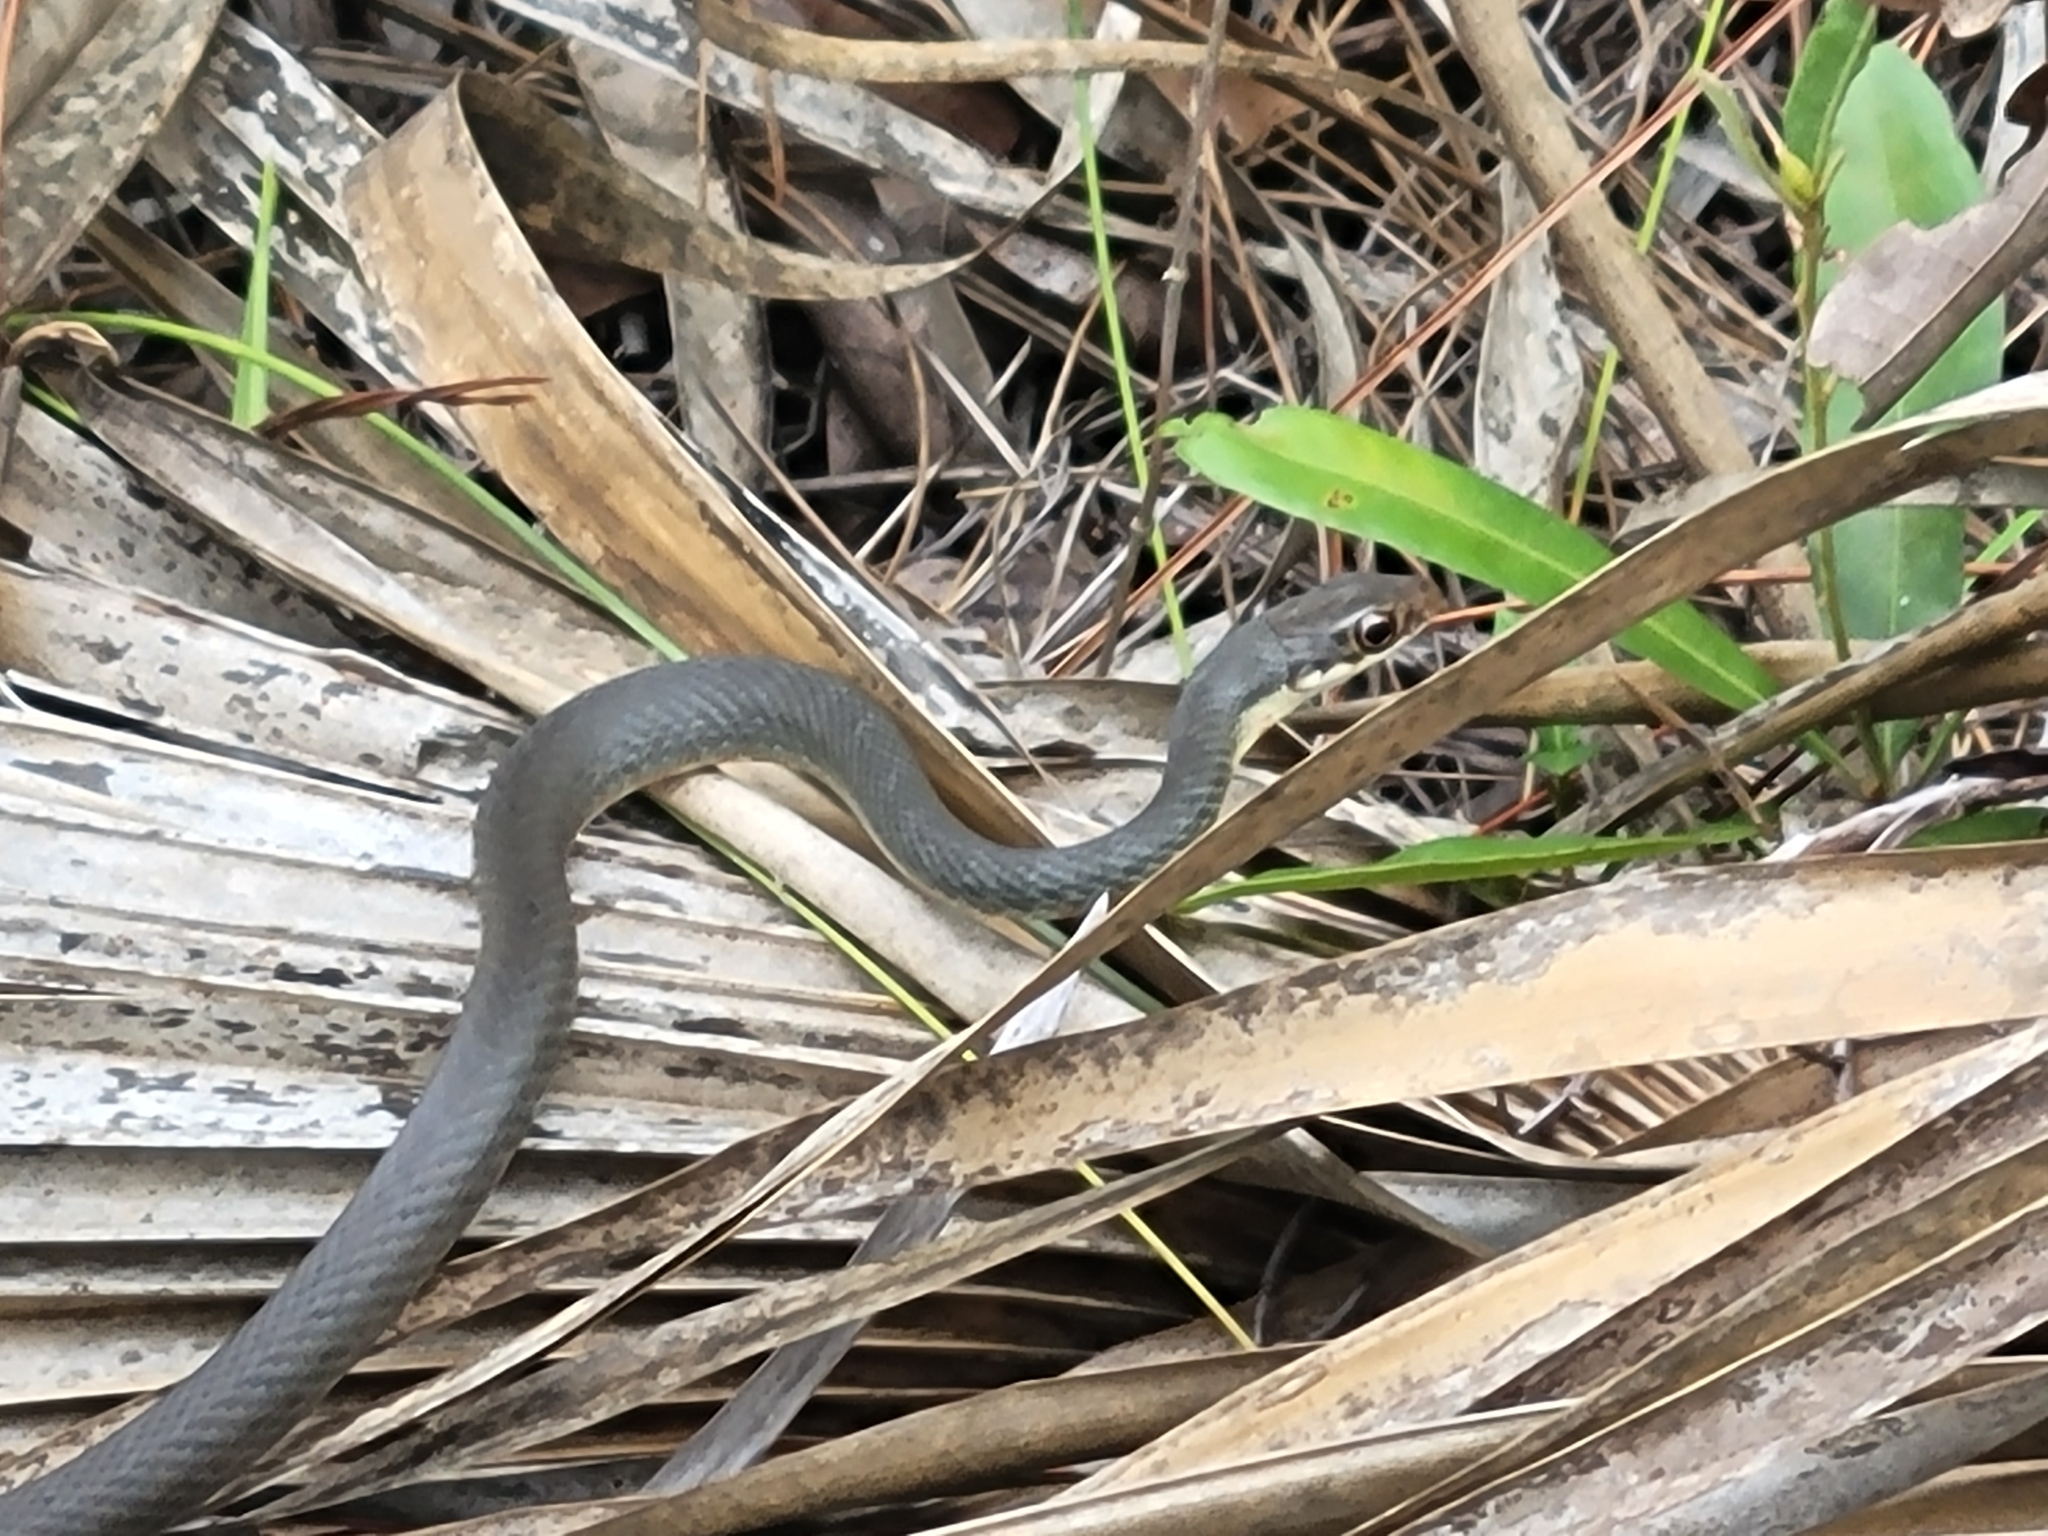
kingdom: Animalia
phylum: Chordata
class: Squamata
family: Colubridae
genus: Coluber
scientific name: Coluber constrictor
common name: Eastern racer
